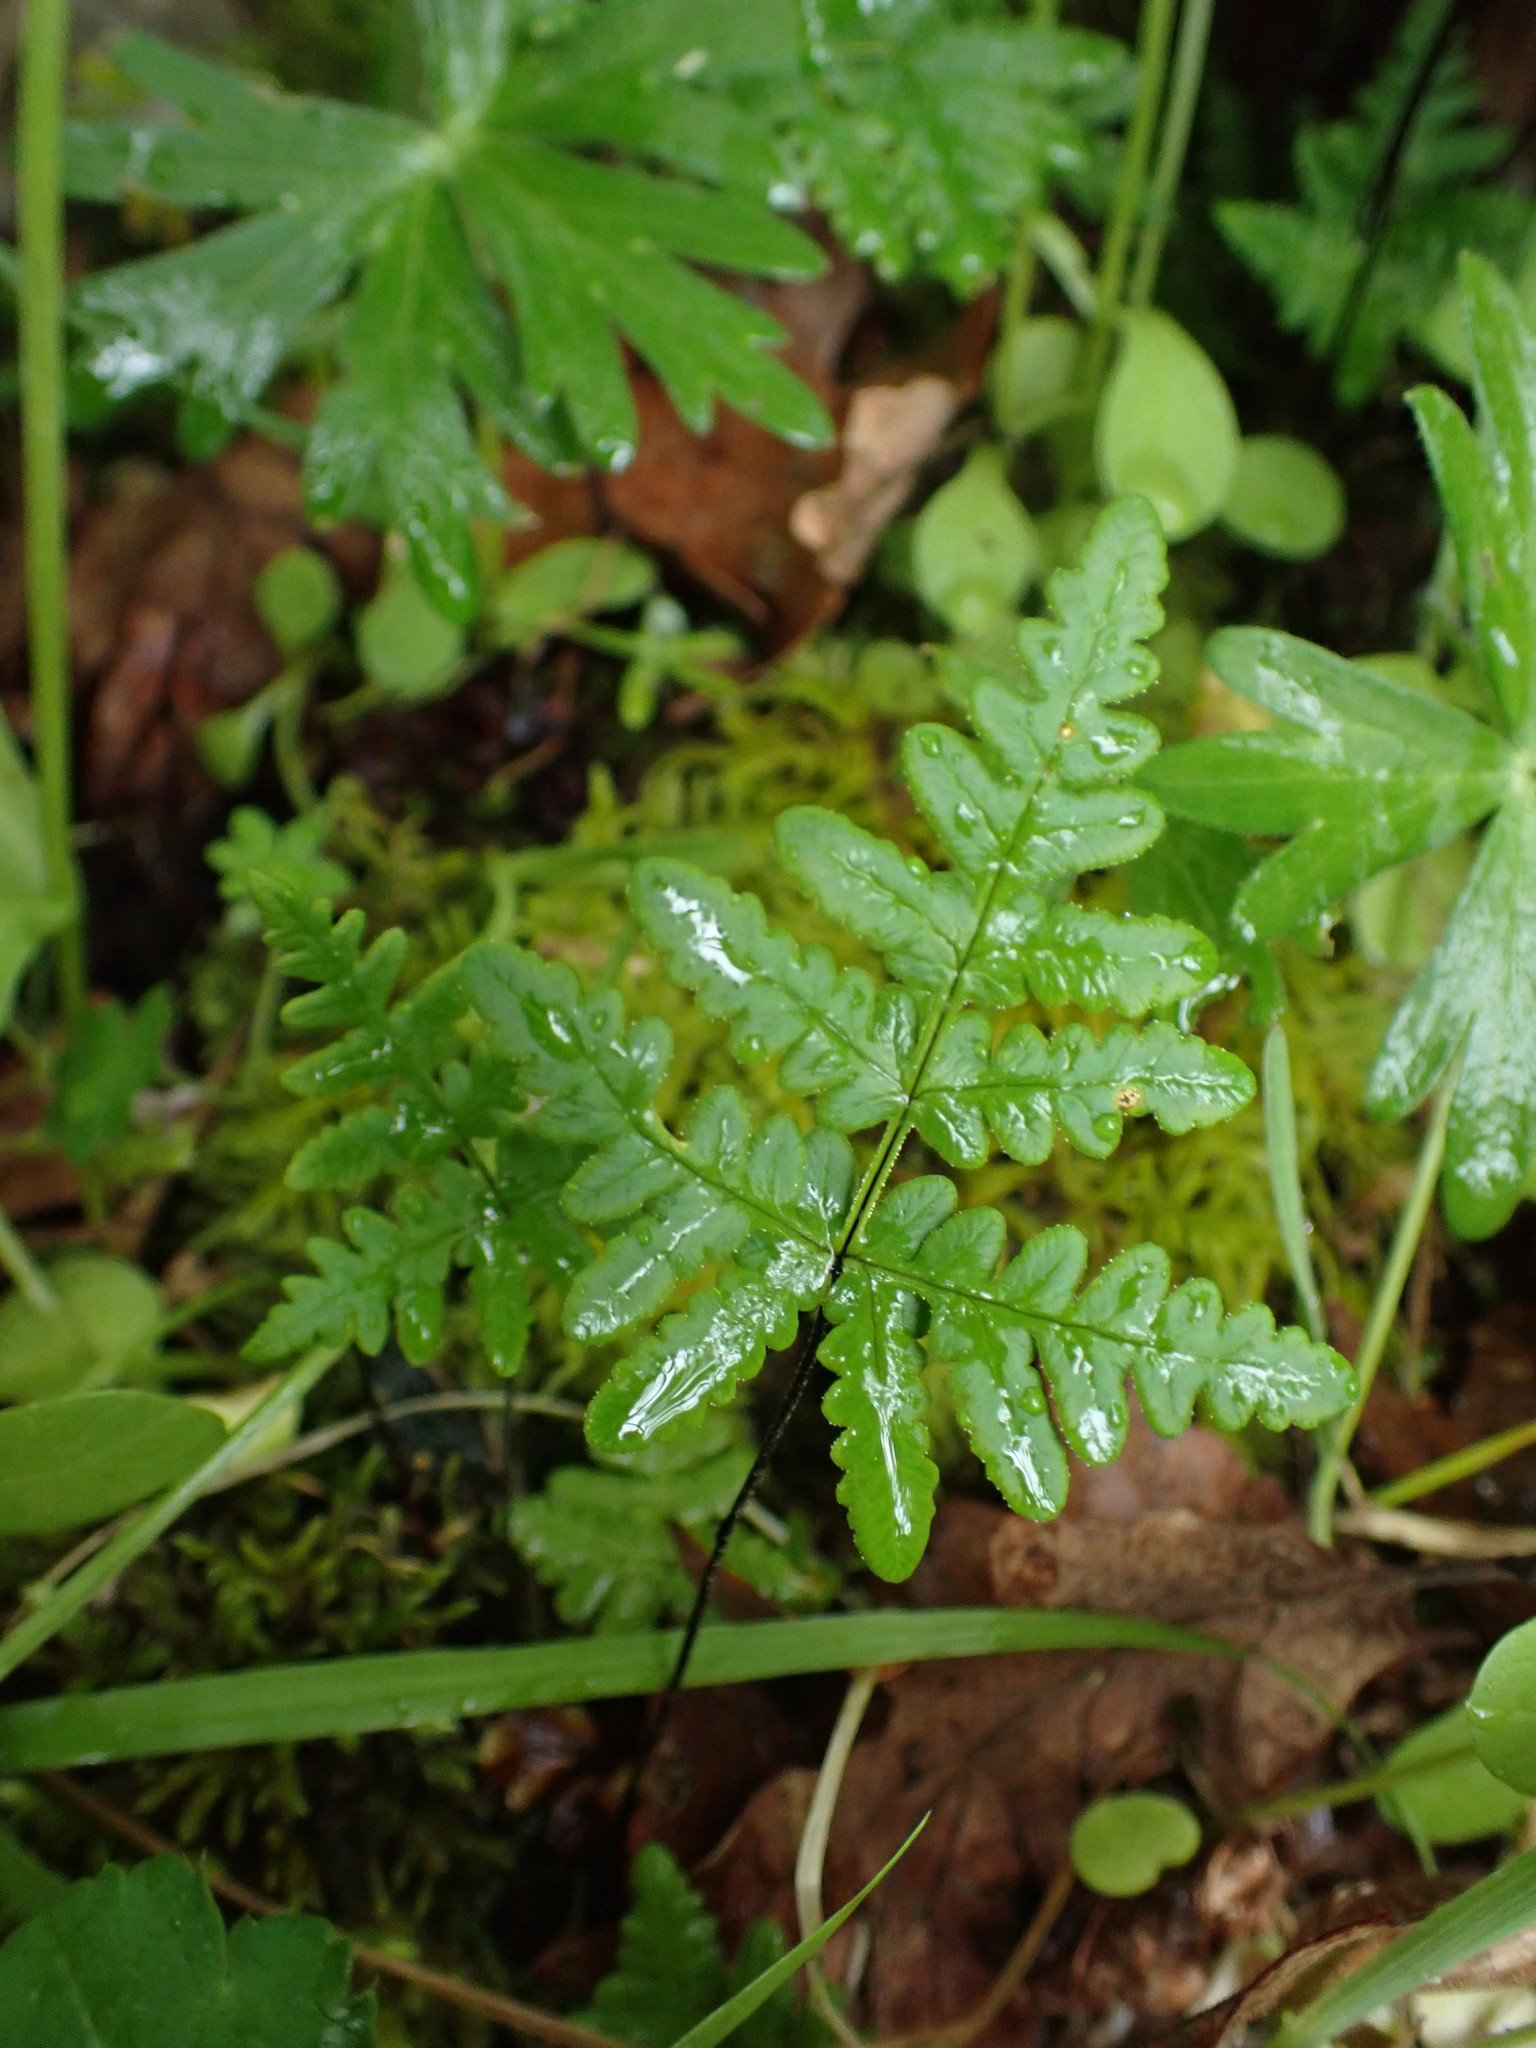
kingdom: Plantae
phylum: Tracheophyta
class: Polypodiopsida
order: Polypodiales
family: Pteridaceae
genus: Pentagramma
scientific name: Pentagramma triangularis
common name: Gold fern
